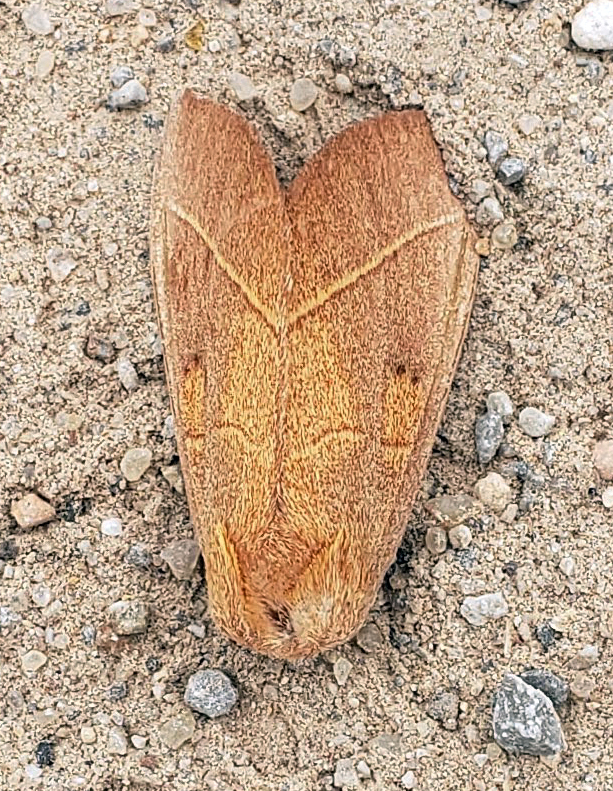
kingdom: Animalia
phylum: Arthropoda
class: Insecta
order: Lepidoptera
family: Notodontidae
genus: Nadata
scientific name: Nadata gibbosa
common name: White-dotted prominent
